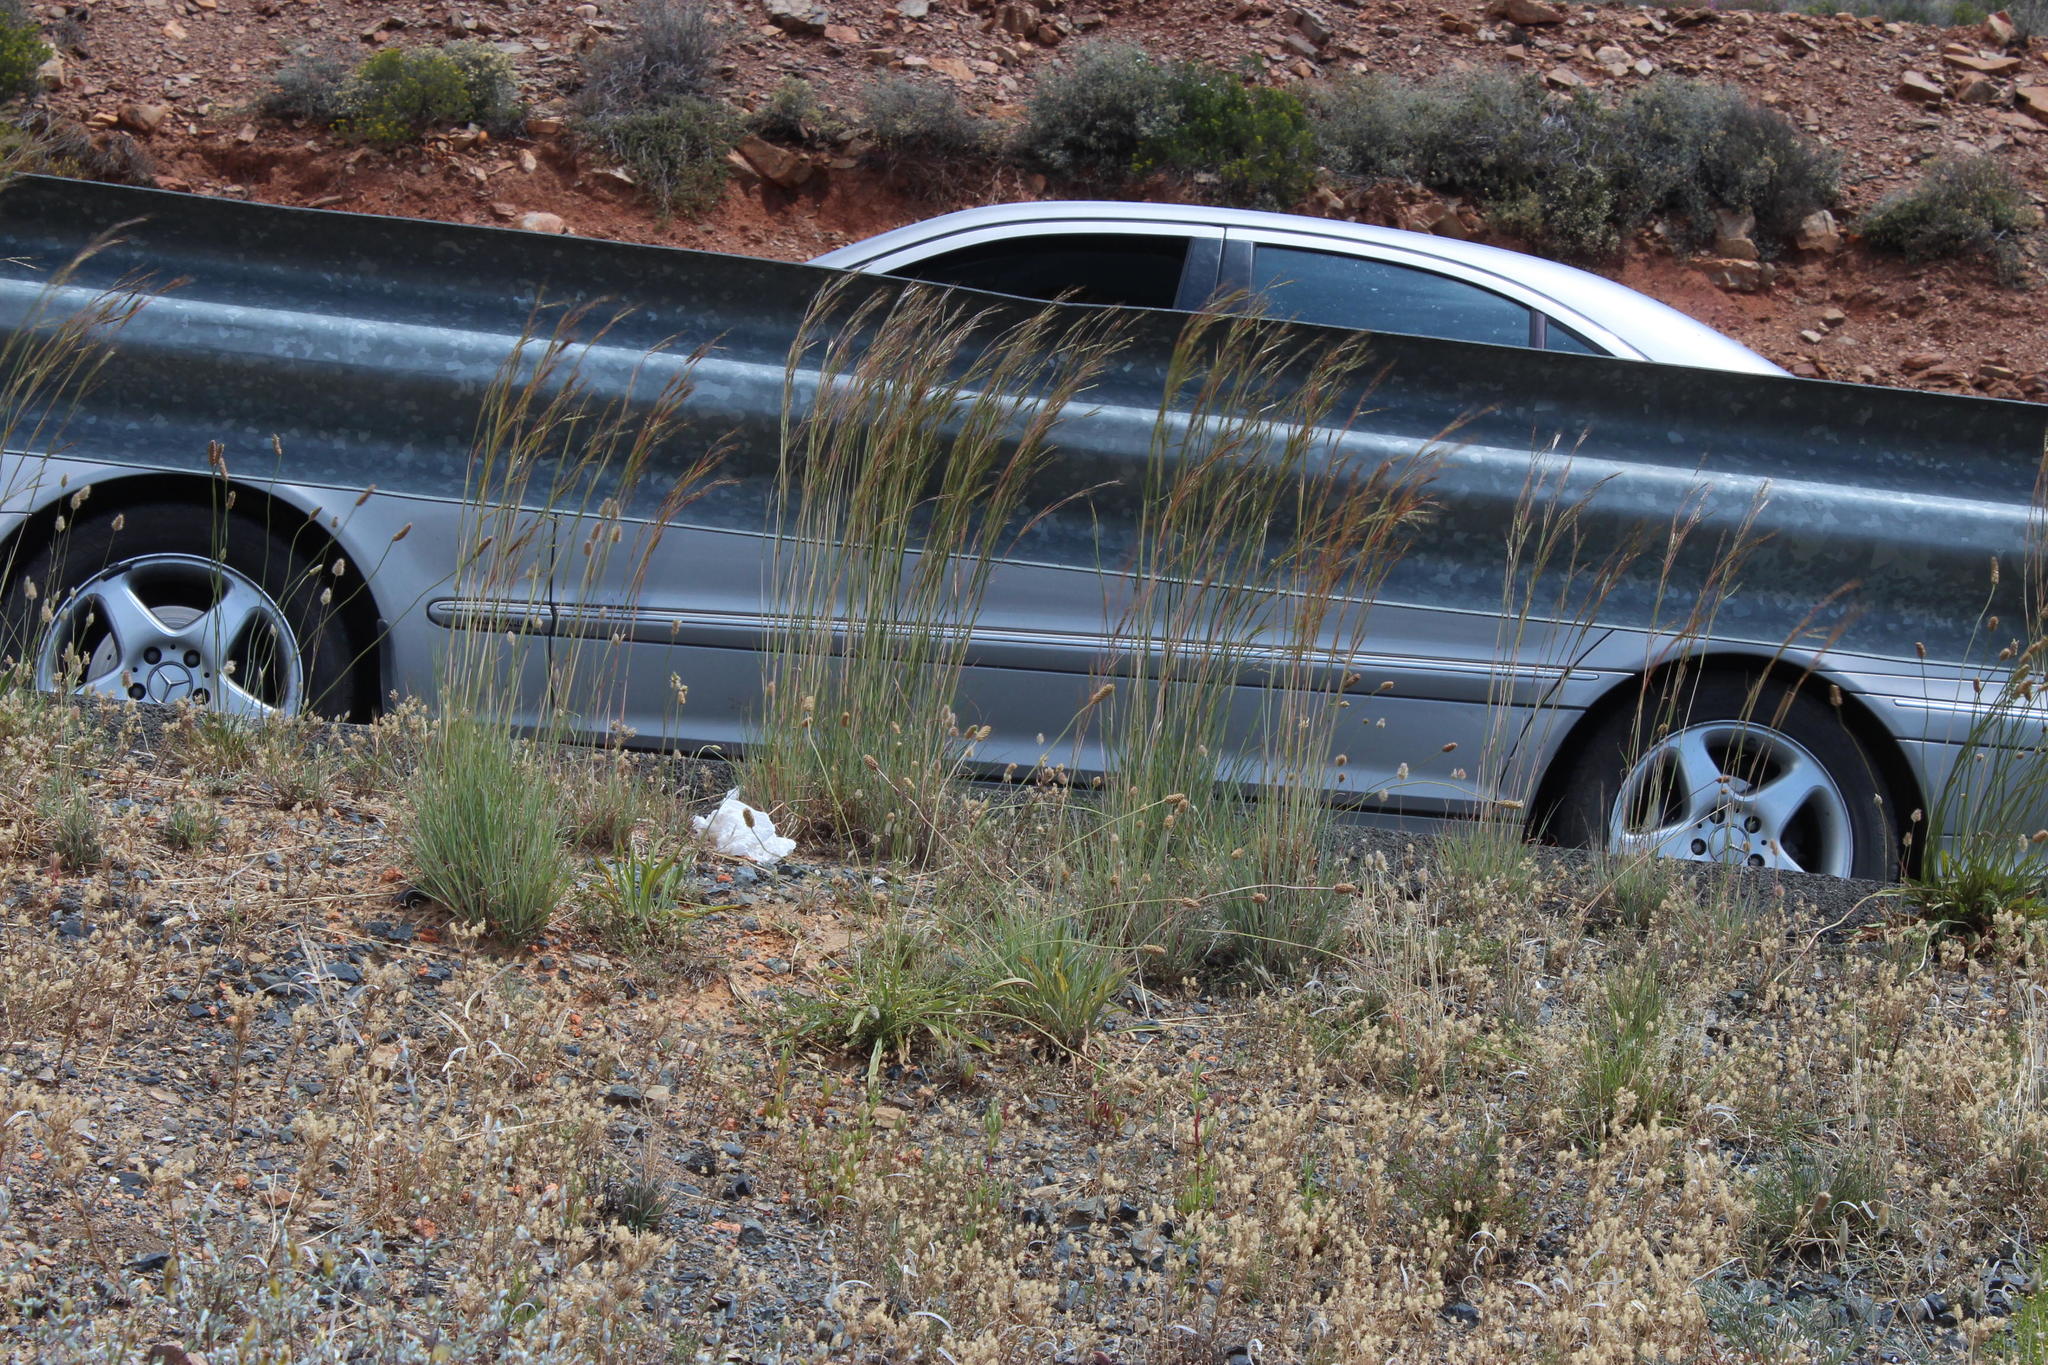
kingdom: Plantae
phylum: Tracheophyta
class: Liliopsida
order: Poales
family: Poaceae
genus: Hyparrhenia
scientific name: Hyparrhenia hirta
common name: Thatching grass
